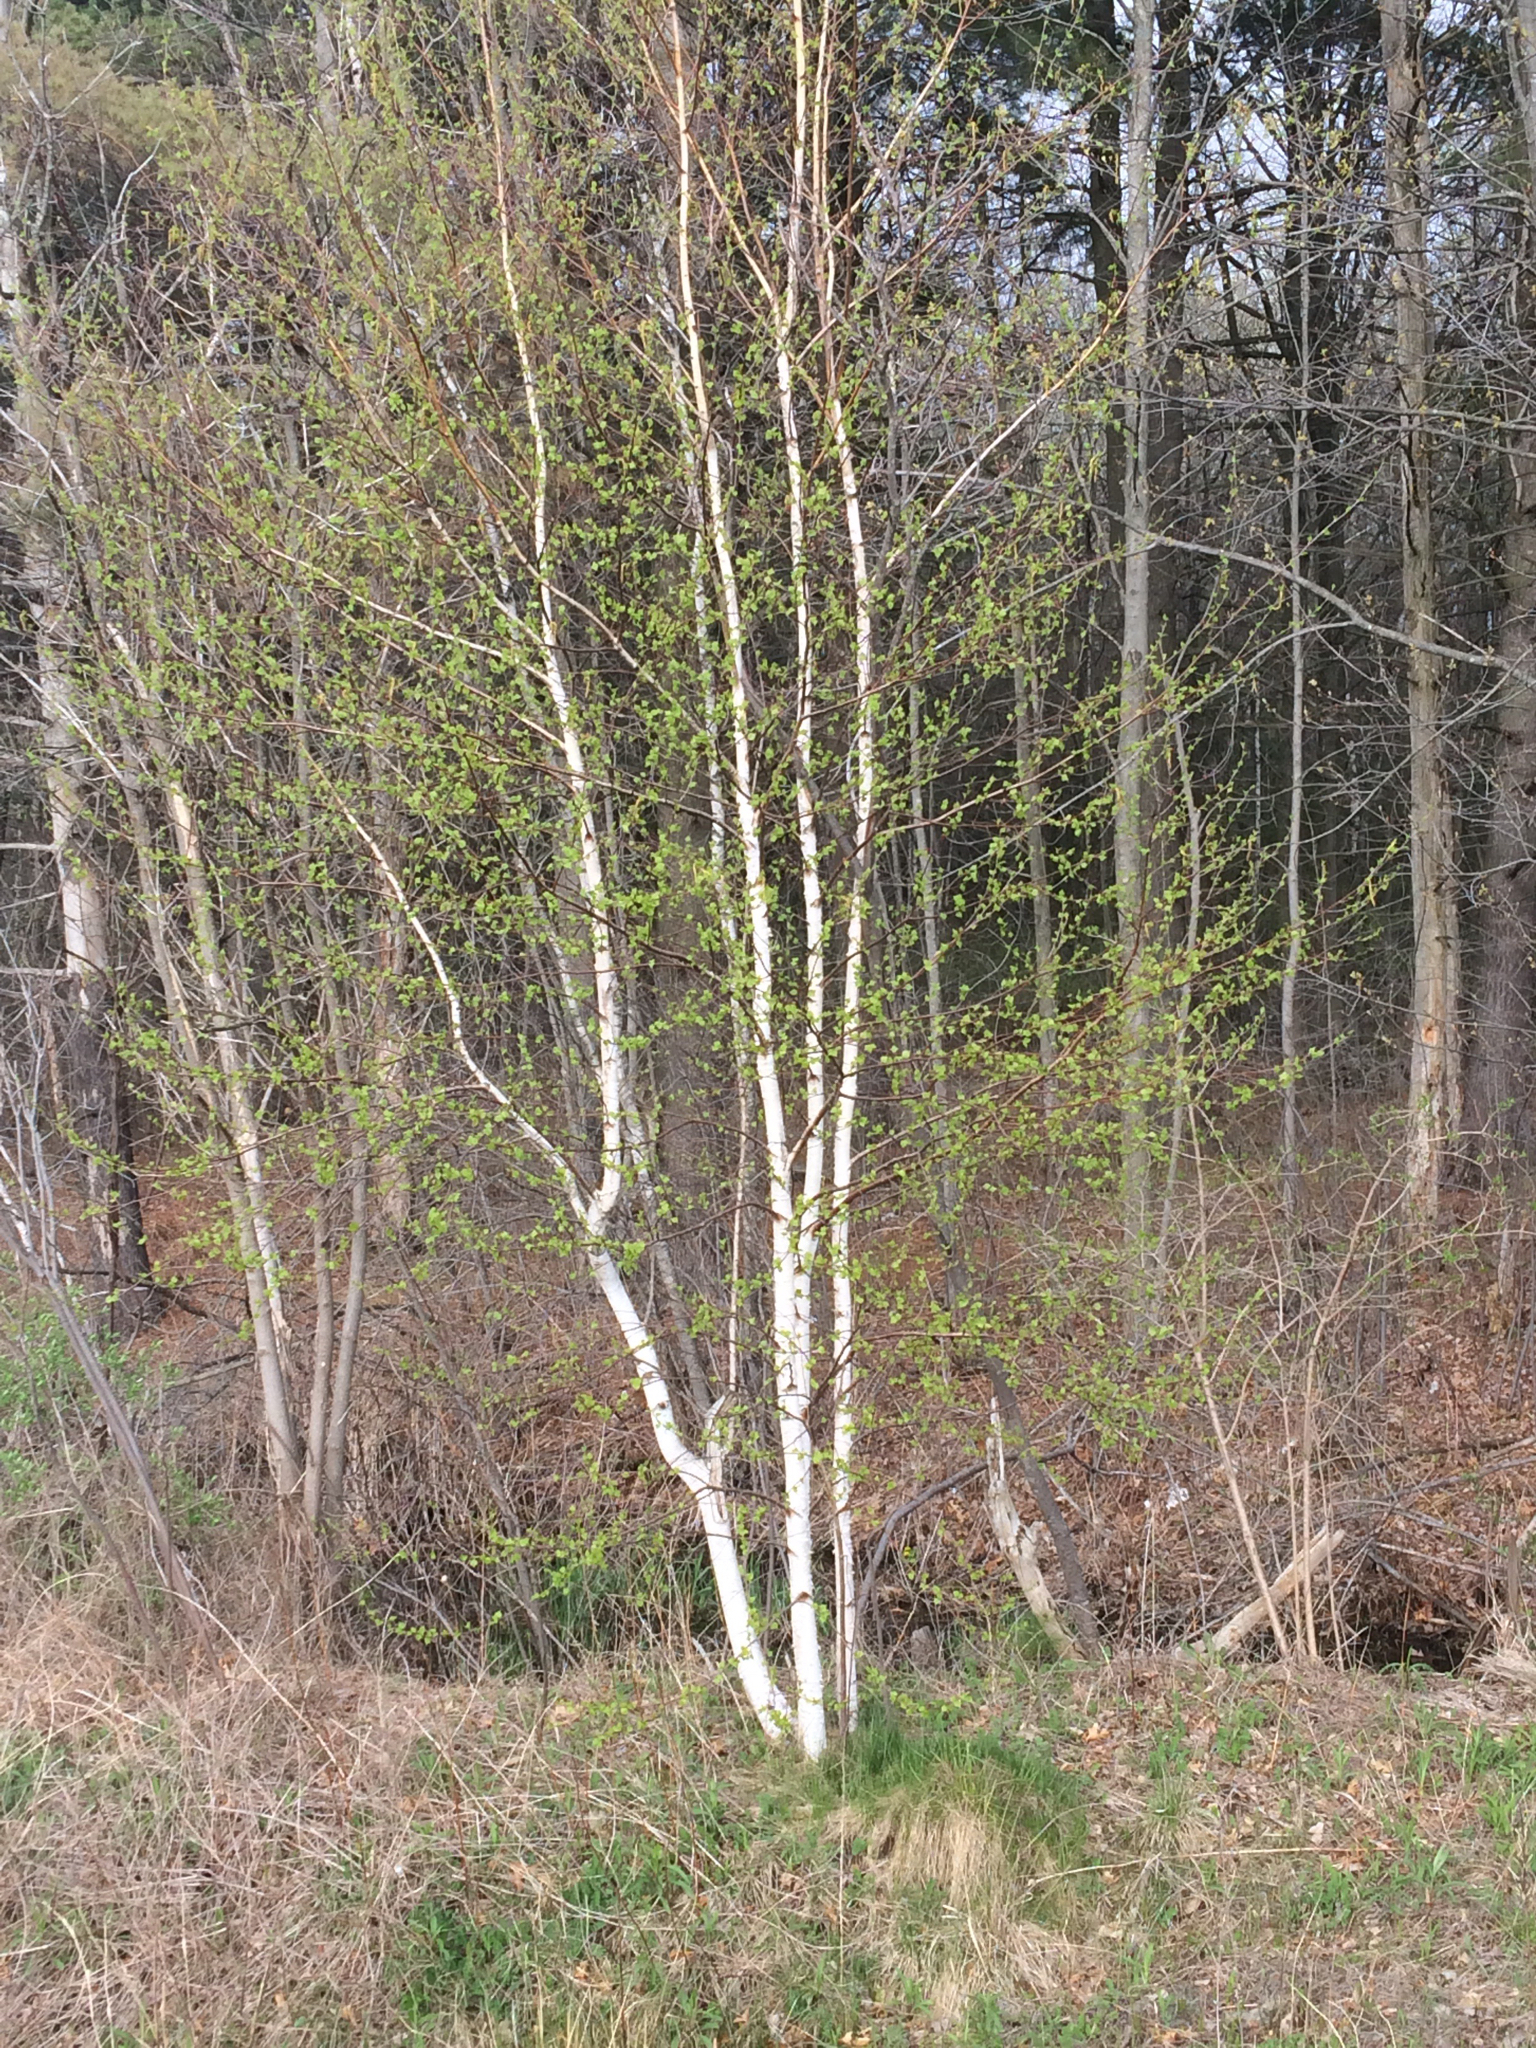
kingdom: Plantae
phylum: Tracheophyta
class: Magnoliopsida
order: Fagales
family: Betulaceae
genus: Betula
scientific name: Betula papyrifera
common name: Paper birch
